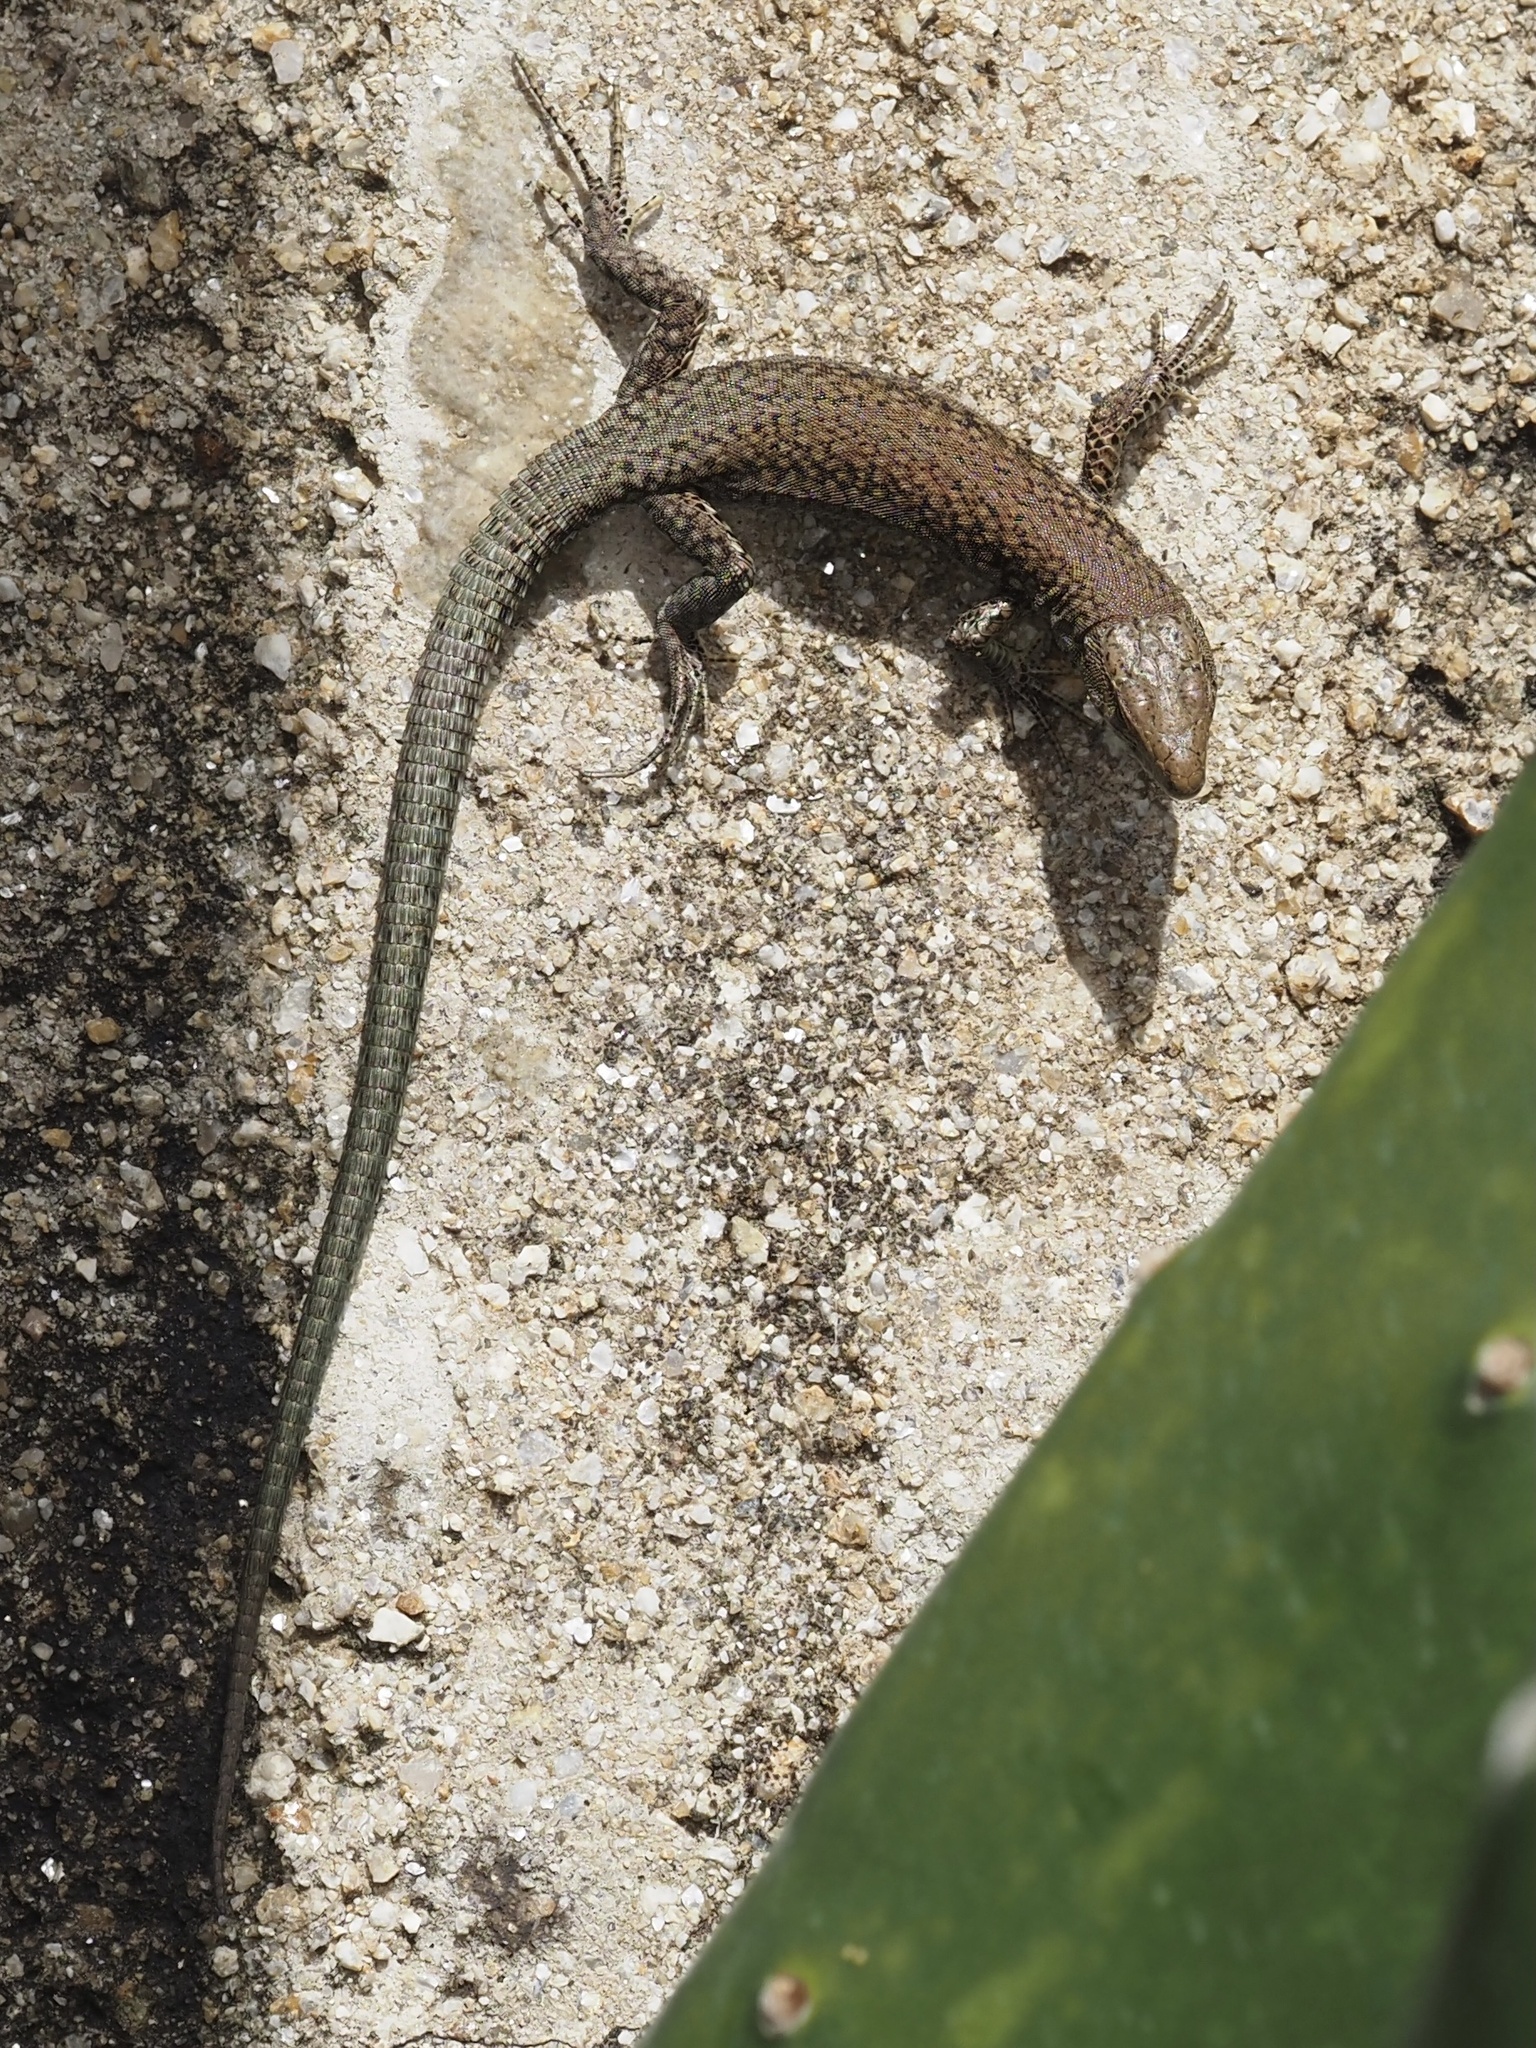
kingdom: Animalia
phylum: Chordata
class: Squamata
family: Lacertidae
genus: Podarcis
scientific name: Podarcis
